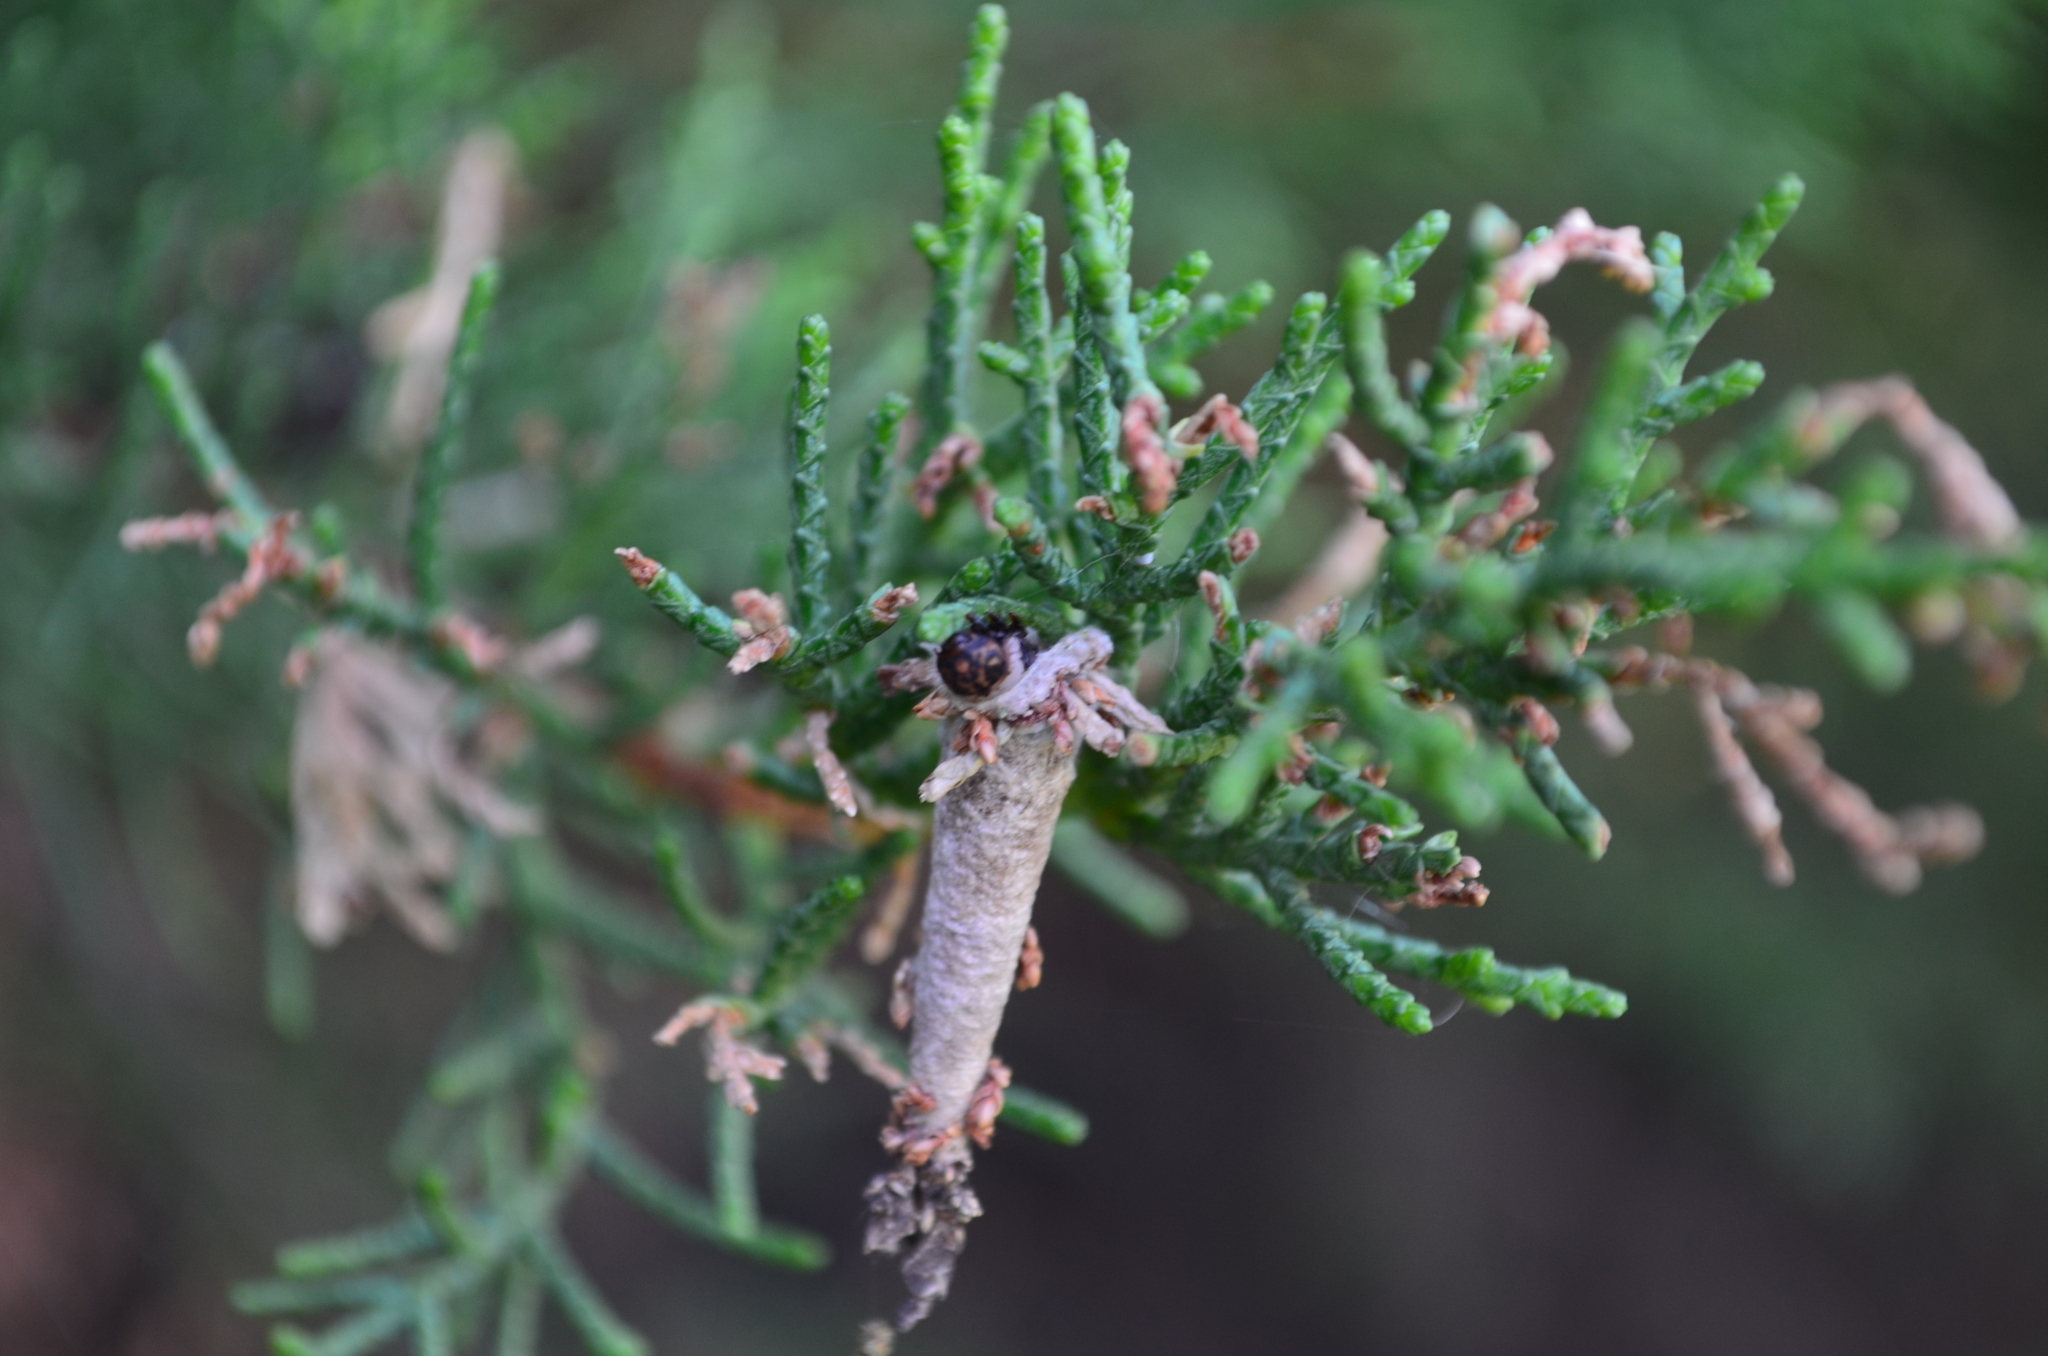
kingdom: Animalia
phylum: Arthropoda
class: Insecta
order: Lepidoptera
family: Psychidae
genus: Oiketicus
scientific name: Oiketicus geyeri
